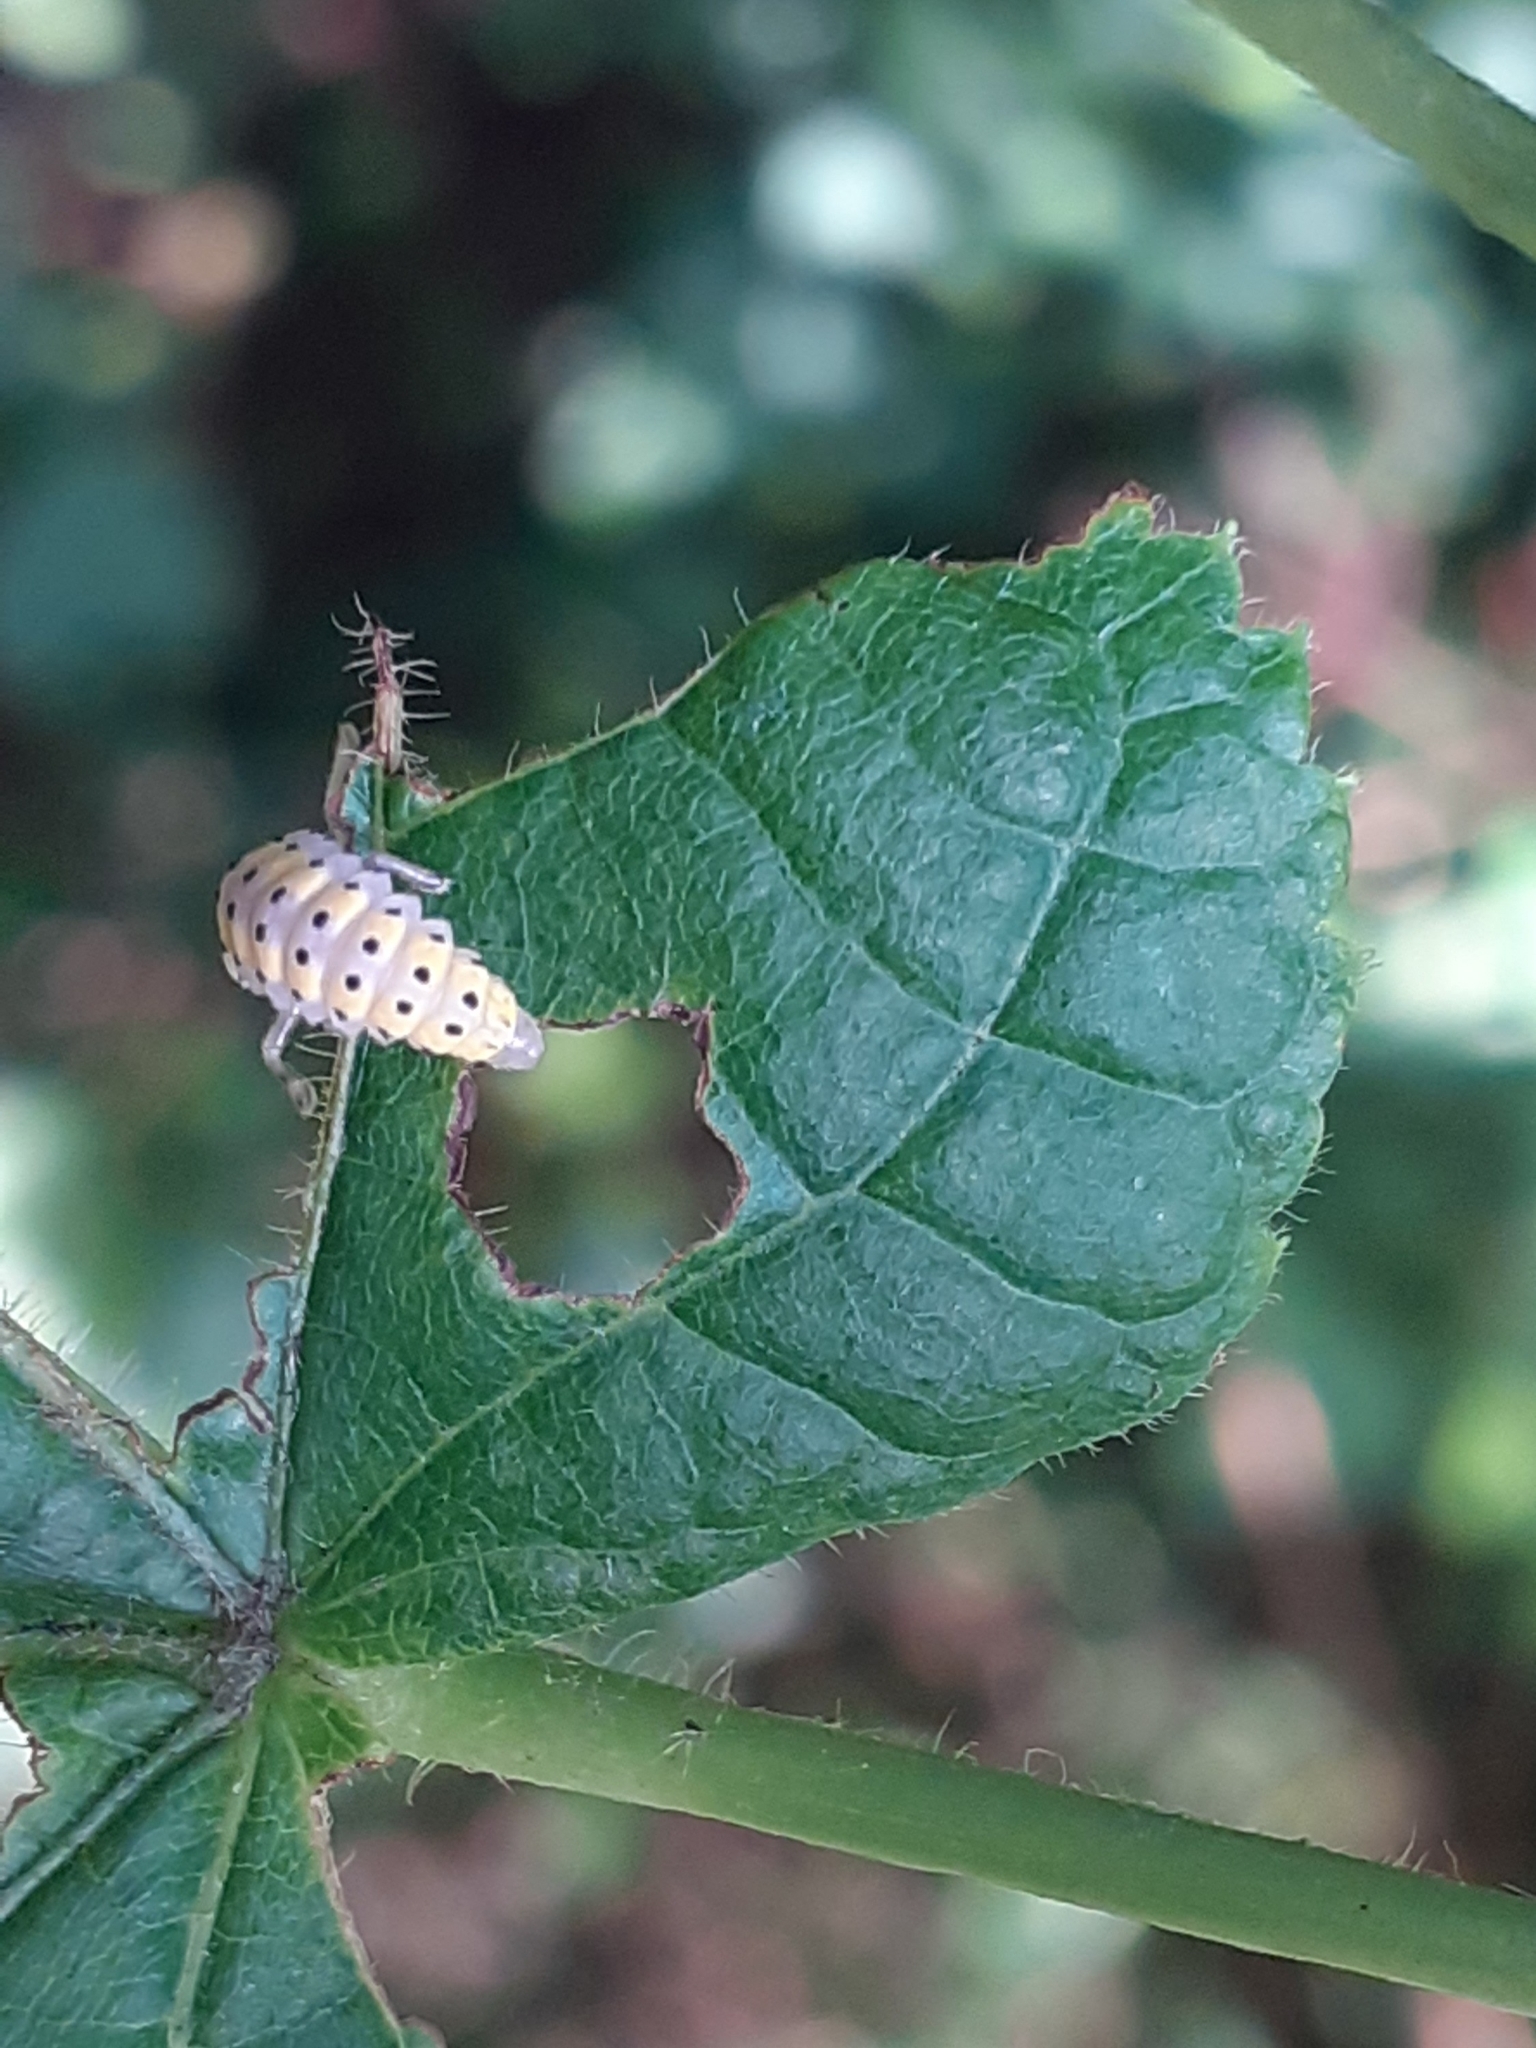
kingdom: Animalia
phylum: Arthropoda
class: Insecta
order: Coleoptera
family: Coccinellidae
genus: Halyzia
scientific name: Halyzia sedecimguttata
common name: Orange ladybird
